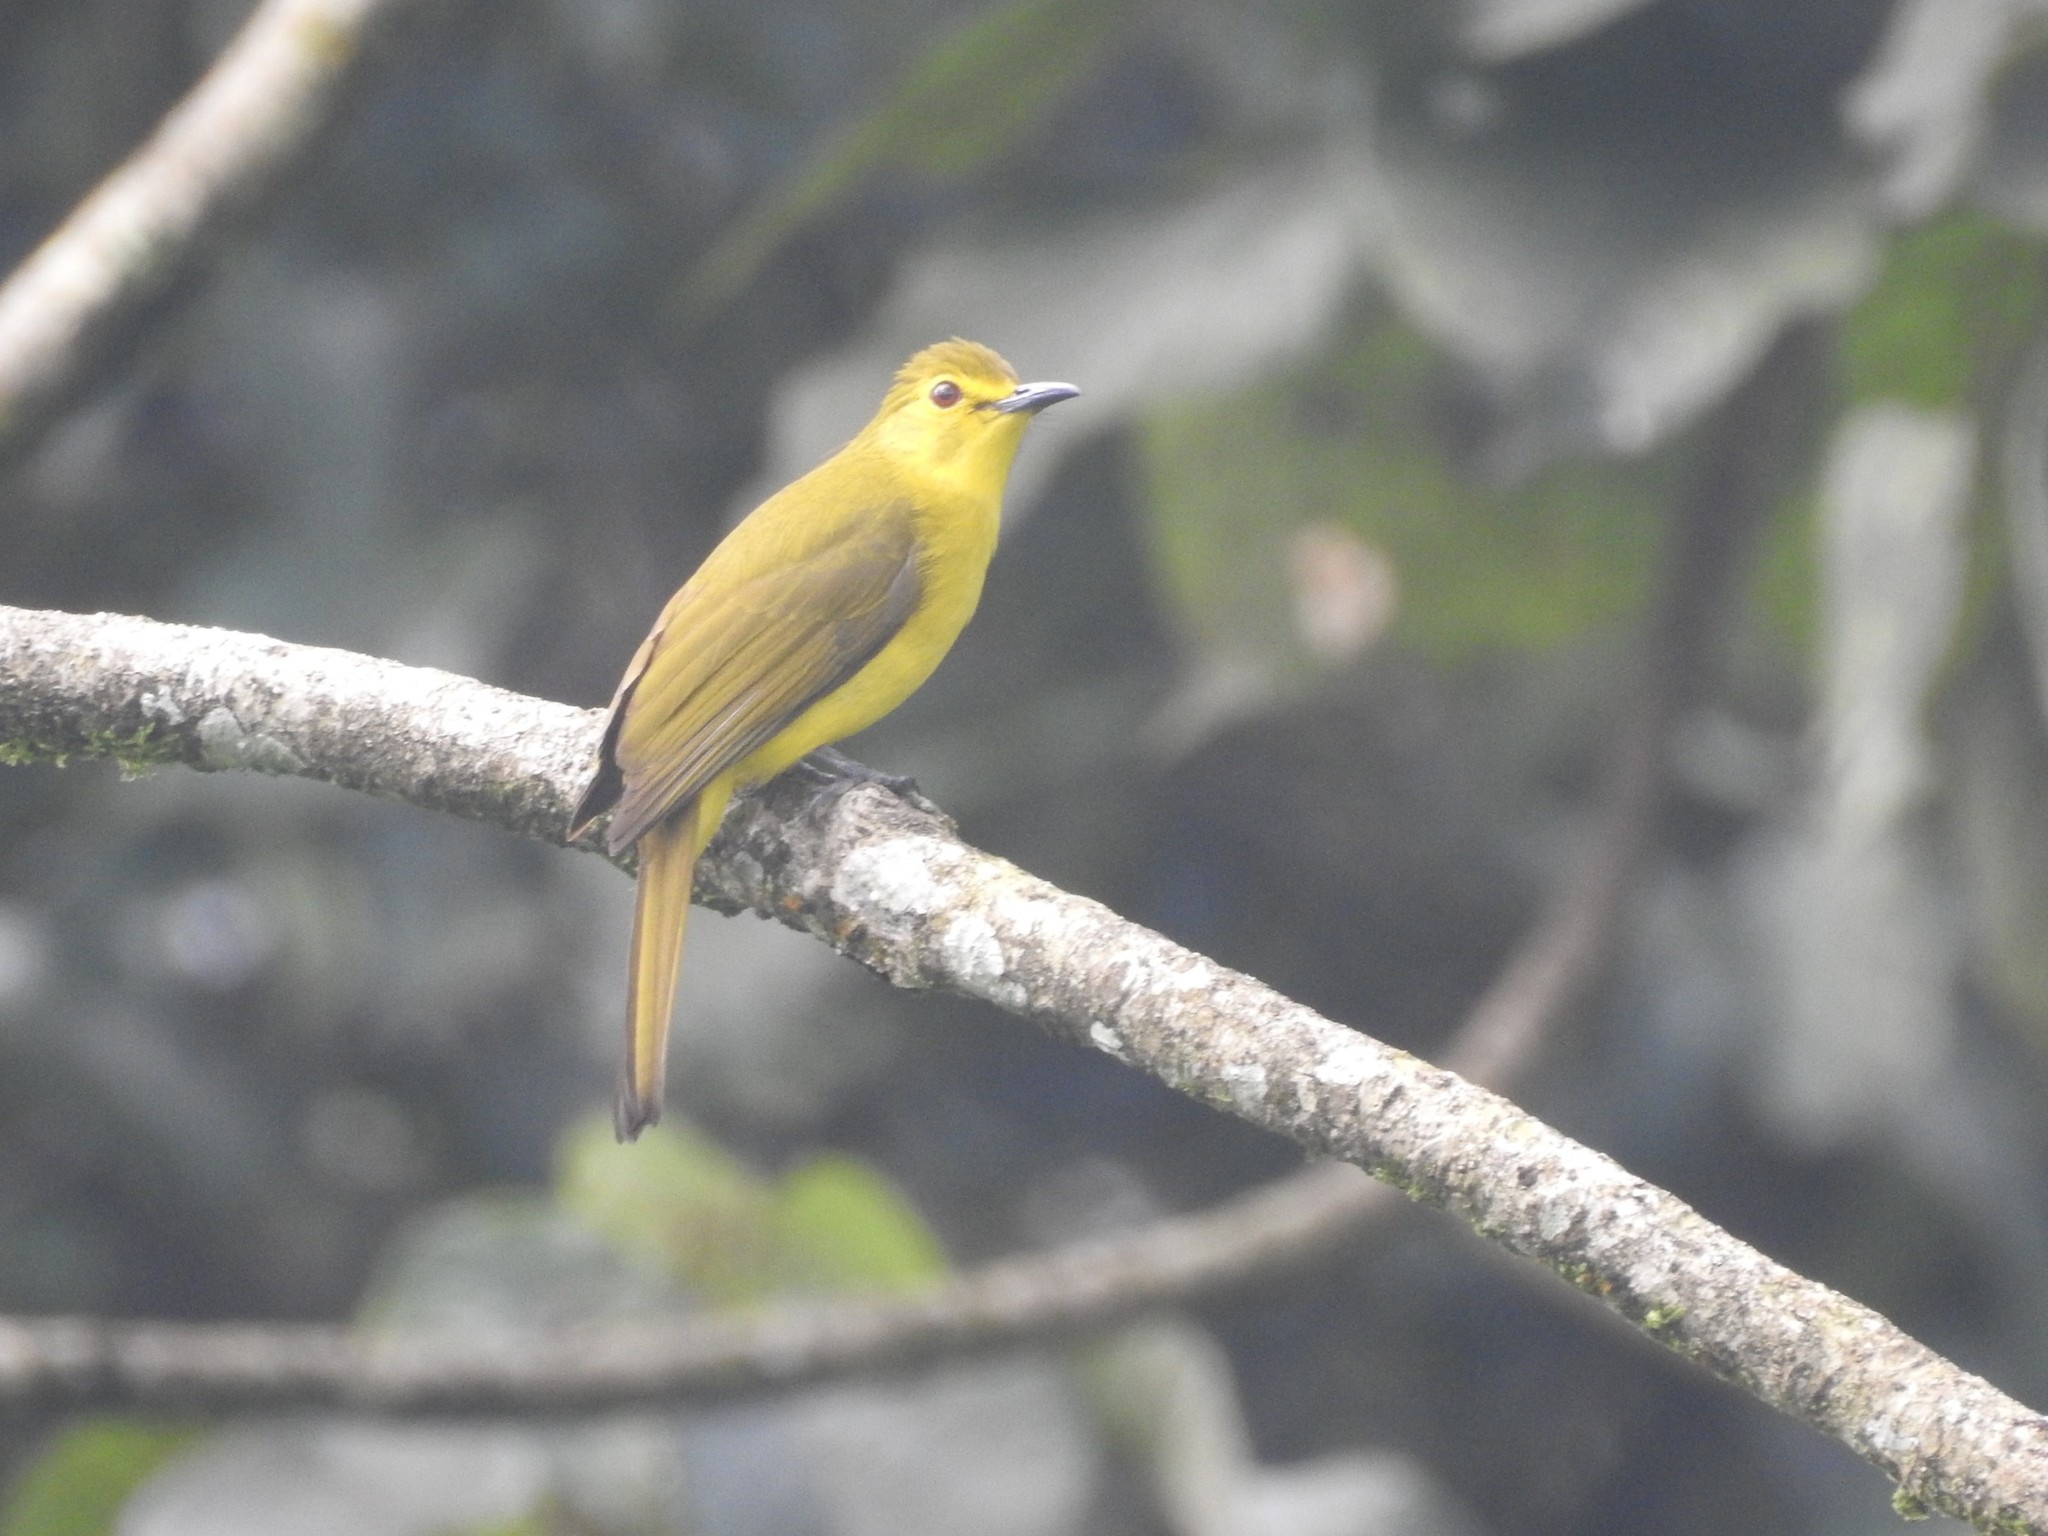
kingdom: Animalia
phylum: Chordata
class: Aves
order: Passeriformes
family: Pycnonotidae
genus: Acritillas
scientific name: Acritillas indica
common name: Yellow-browed bulbul
